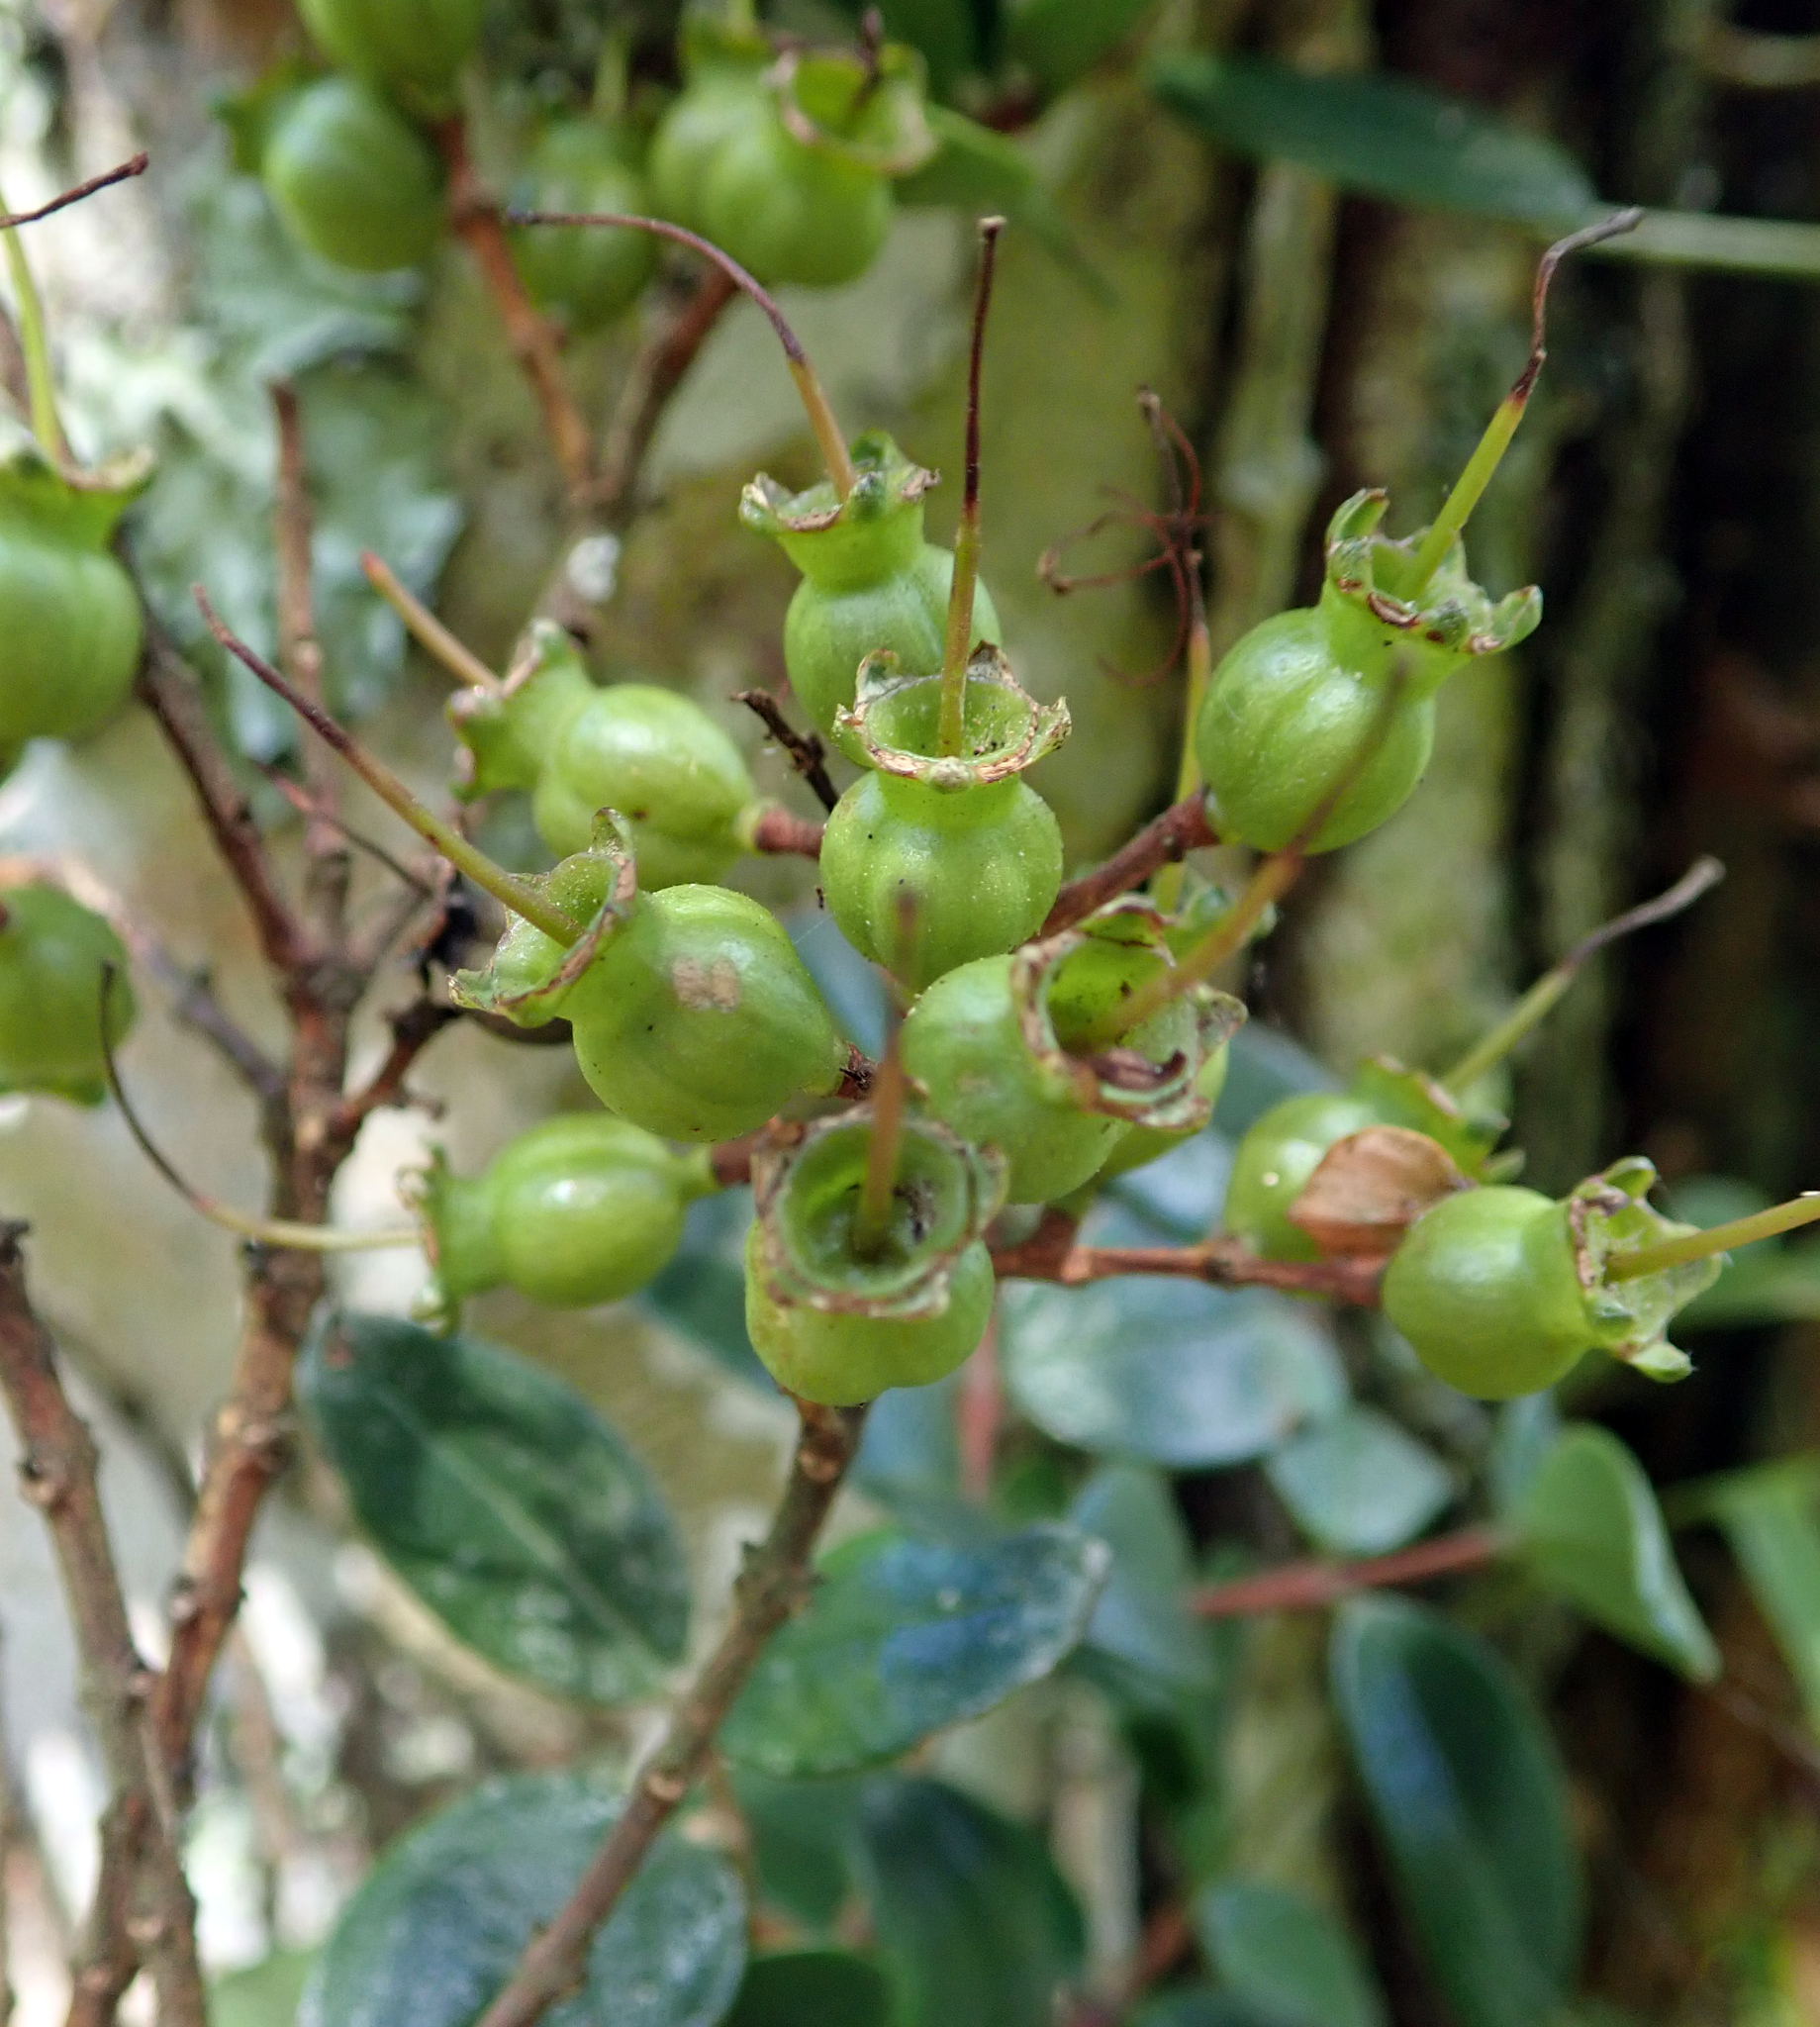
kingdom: Plantae
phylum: Tracheophyta
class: Magnoliopsida
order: Myrtales
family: Myrtaceae
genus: Metrosideros
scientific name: Metrosideros carminea
